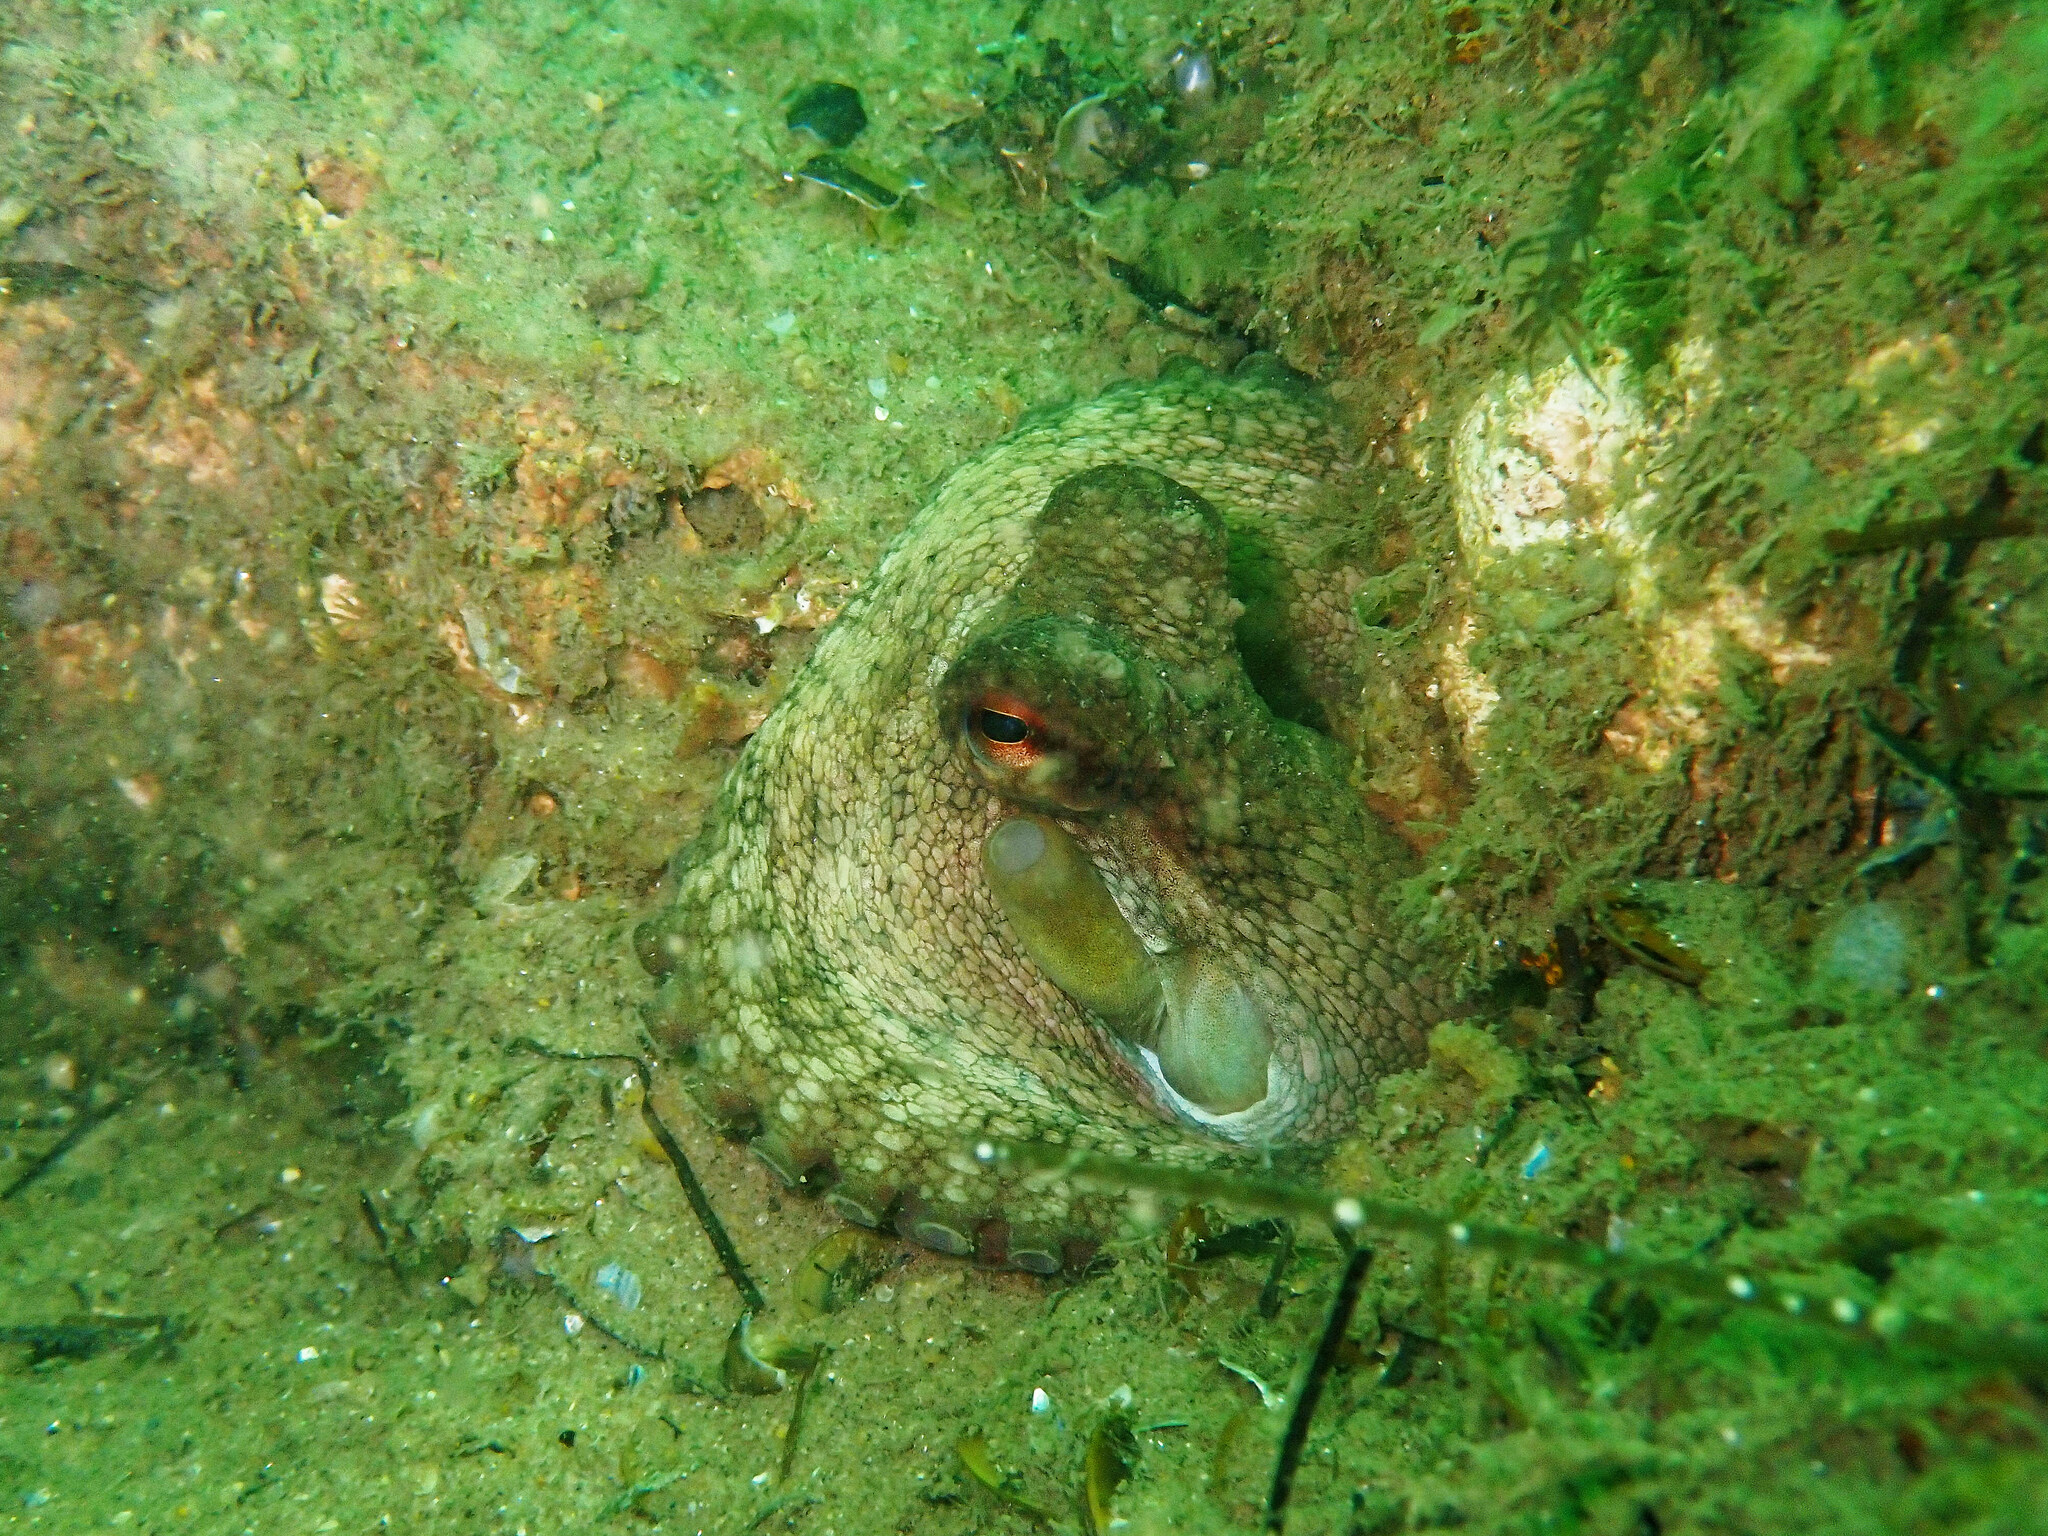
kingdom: Animalia
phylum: Mollusca
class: Cephalopoda
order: Octopoda
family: Octopodidae
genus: Octopus
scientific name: Octopus vulgaris
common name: Common octopus
